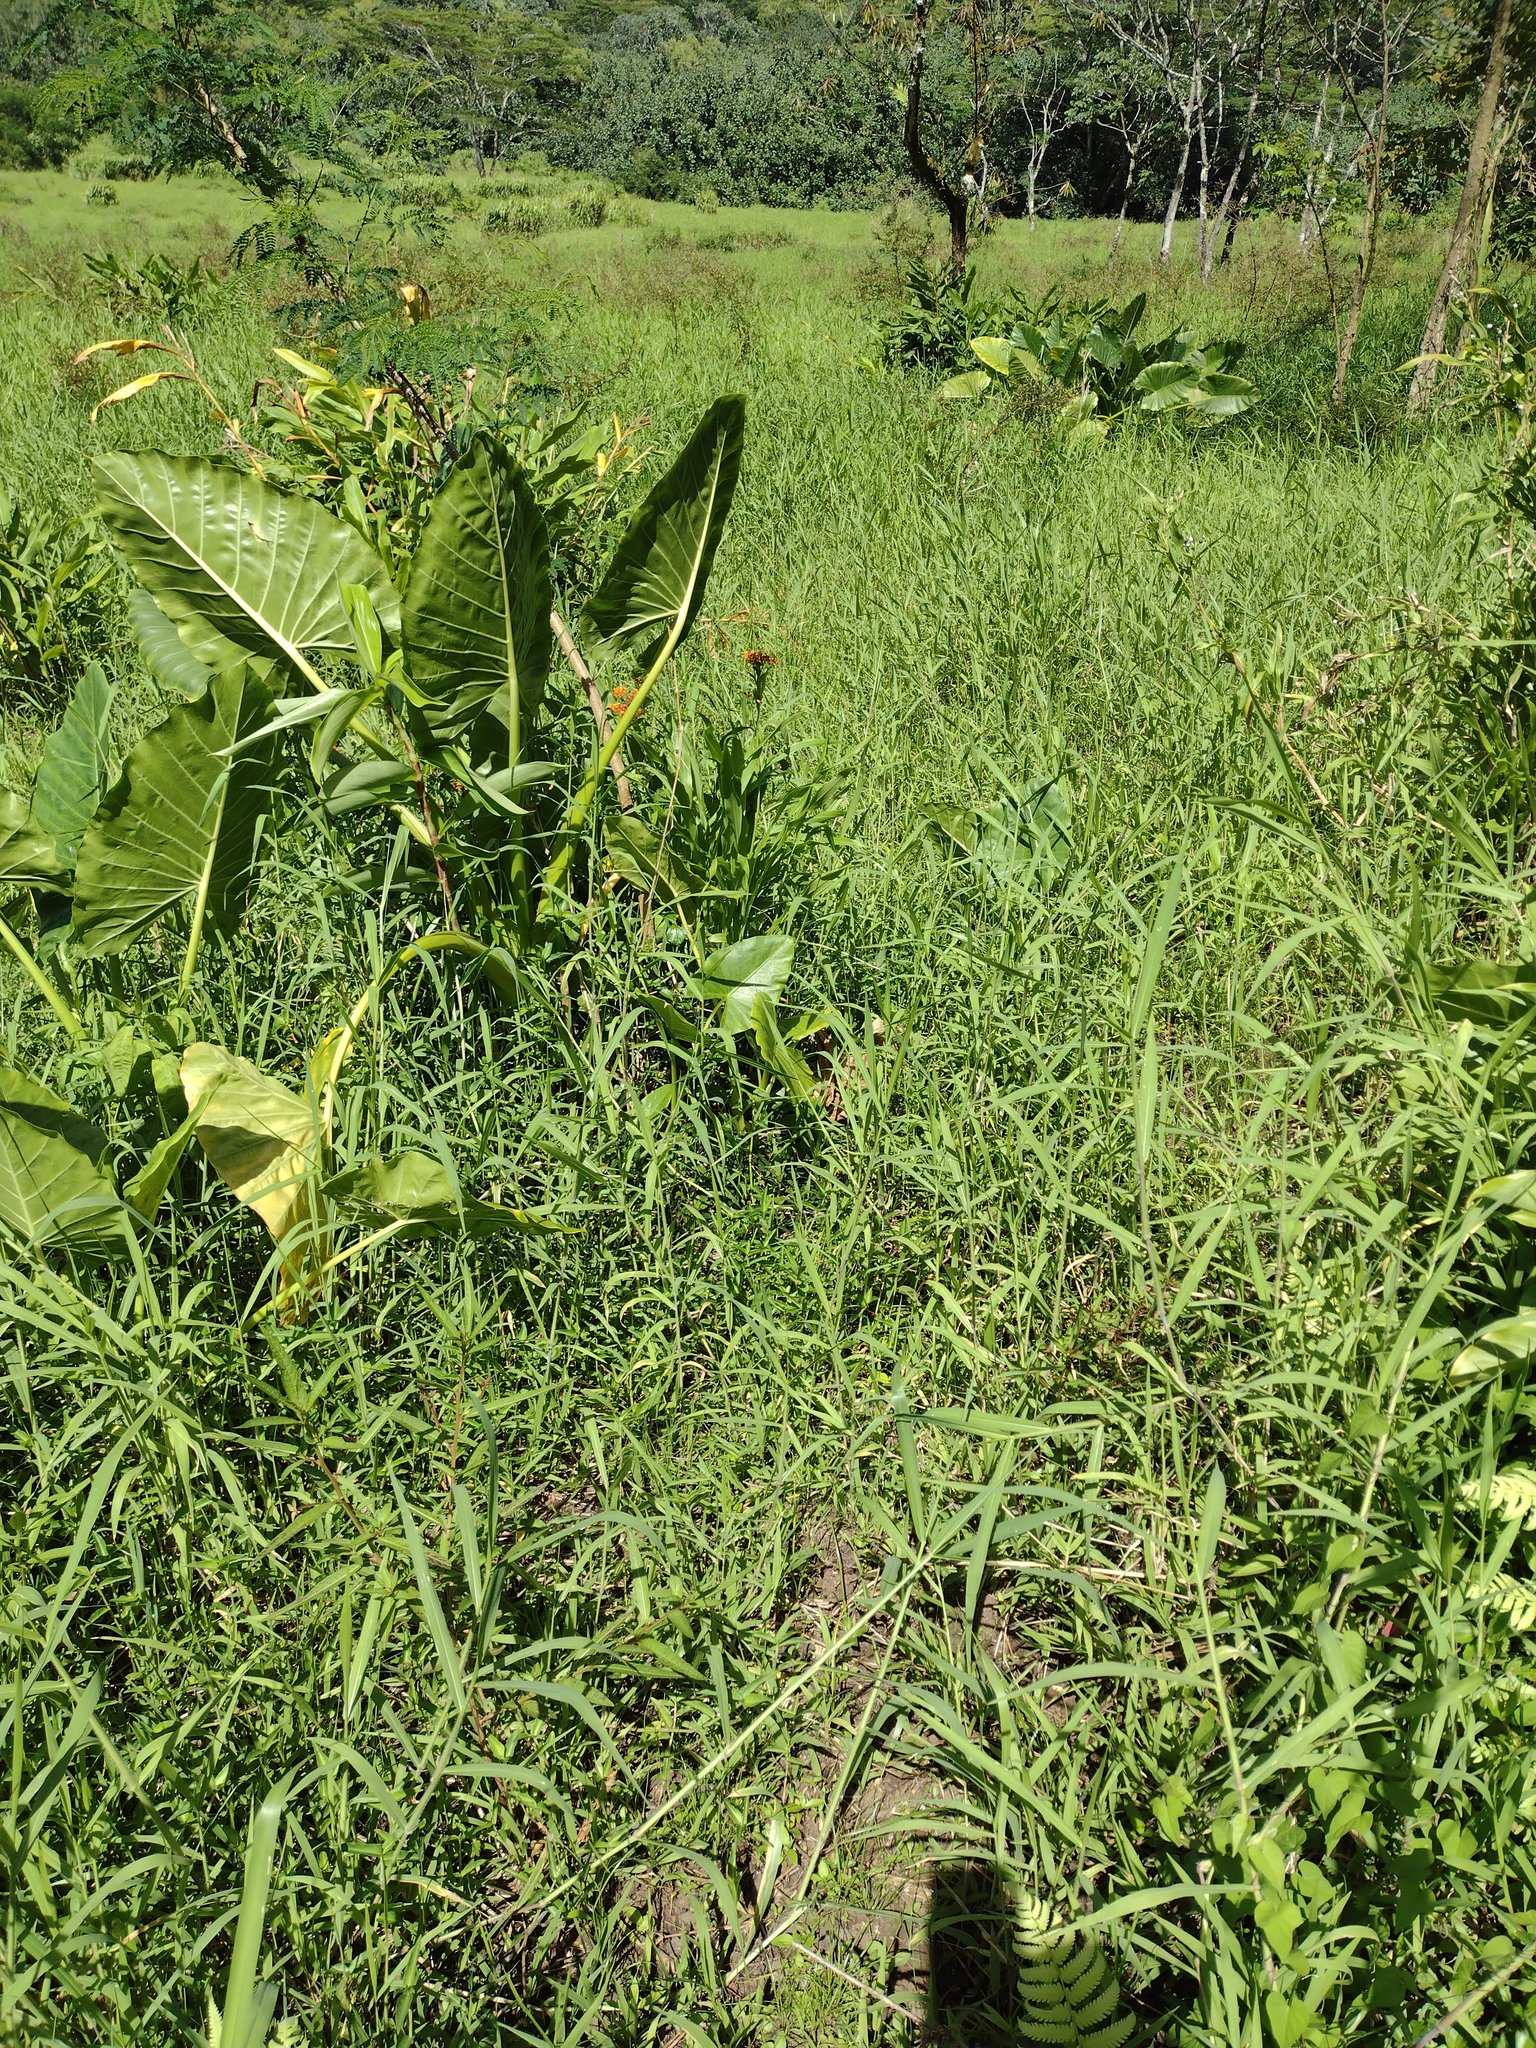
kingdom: Plantae
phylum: Tracheophyta
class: Liliopsida
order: Poales
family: Poaceae
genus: Urochloa
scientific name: Urochloa mutica
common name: Para grass
